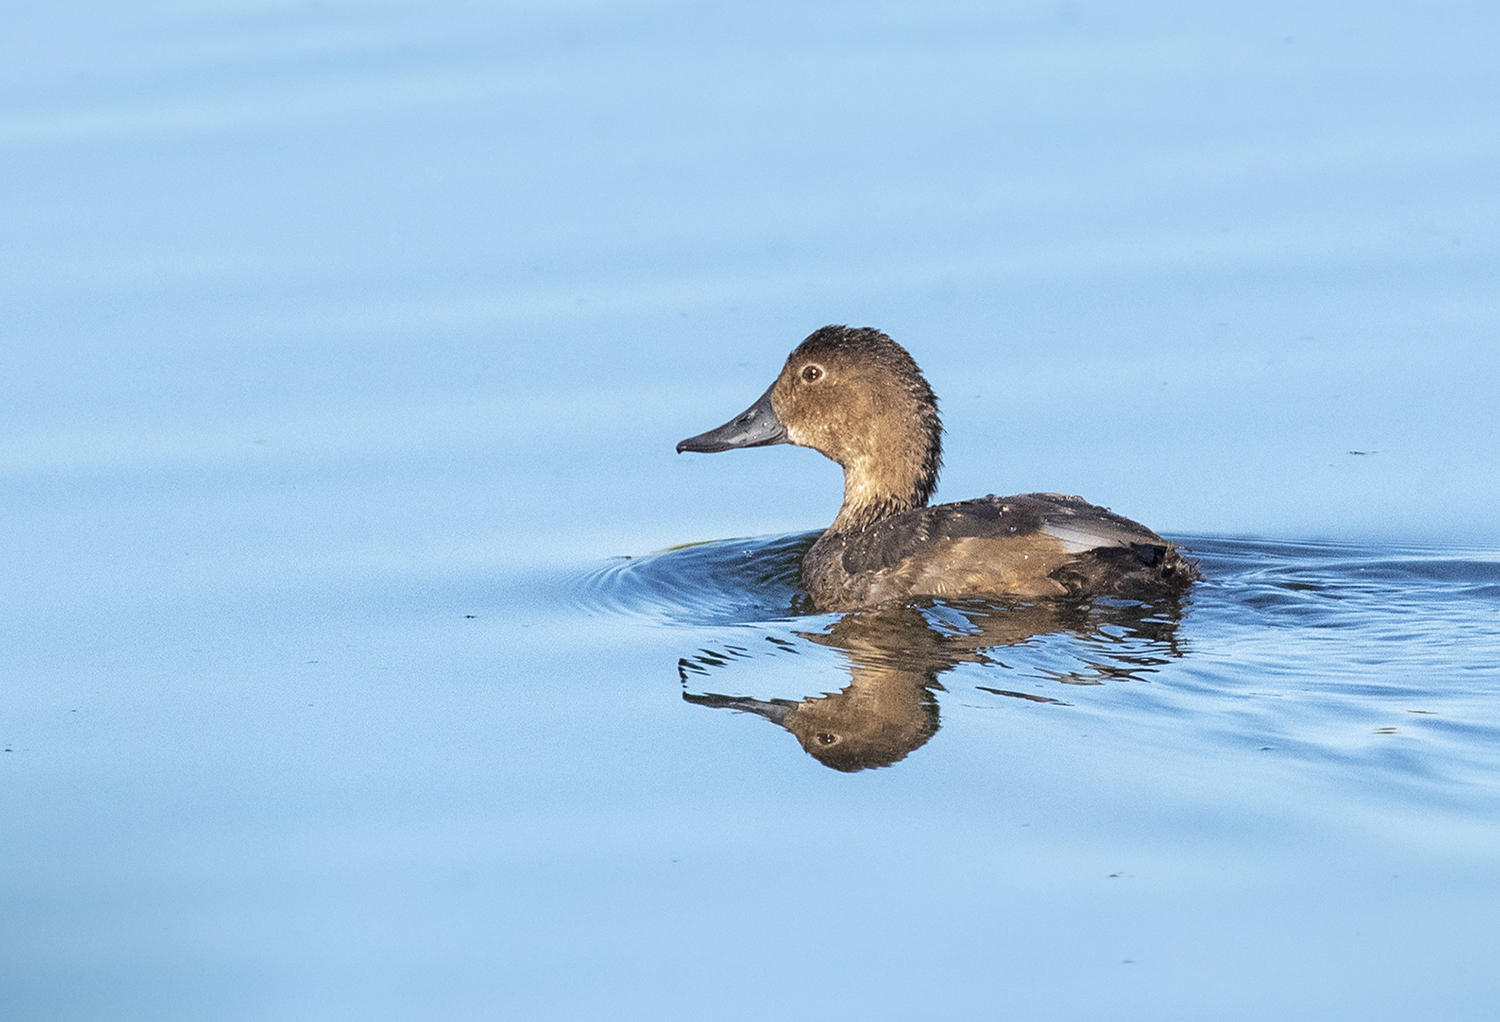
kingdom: Animalia
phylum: Chordata
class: Aves
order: Anseriformes
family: Anatidae
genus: Aythya
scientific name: Aythya ferina
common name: Common pochard
